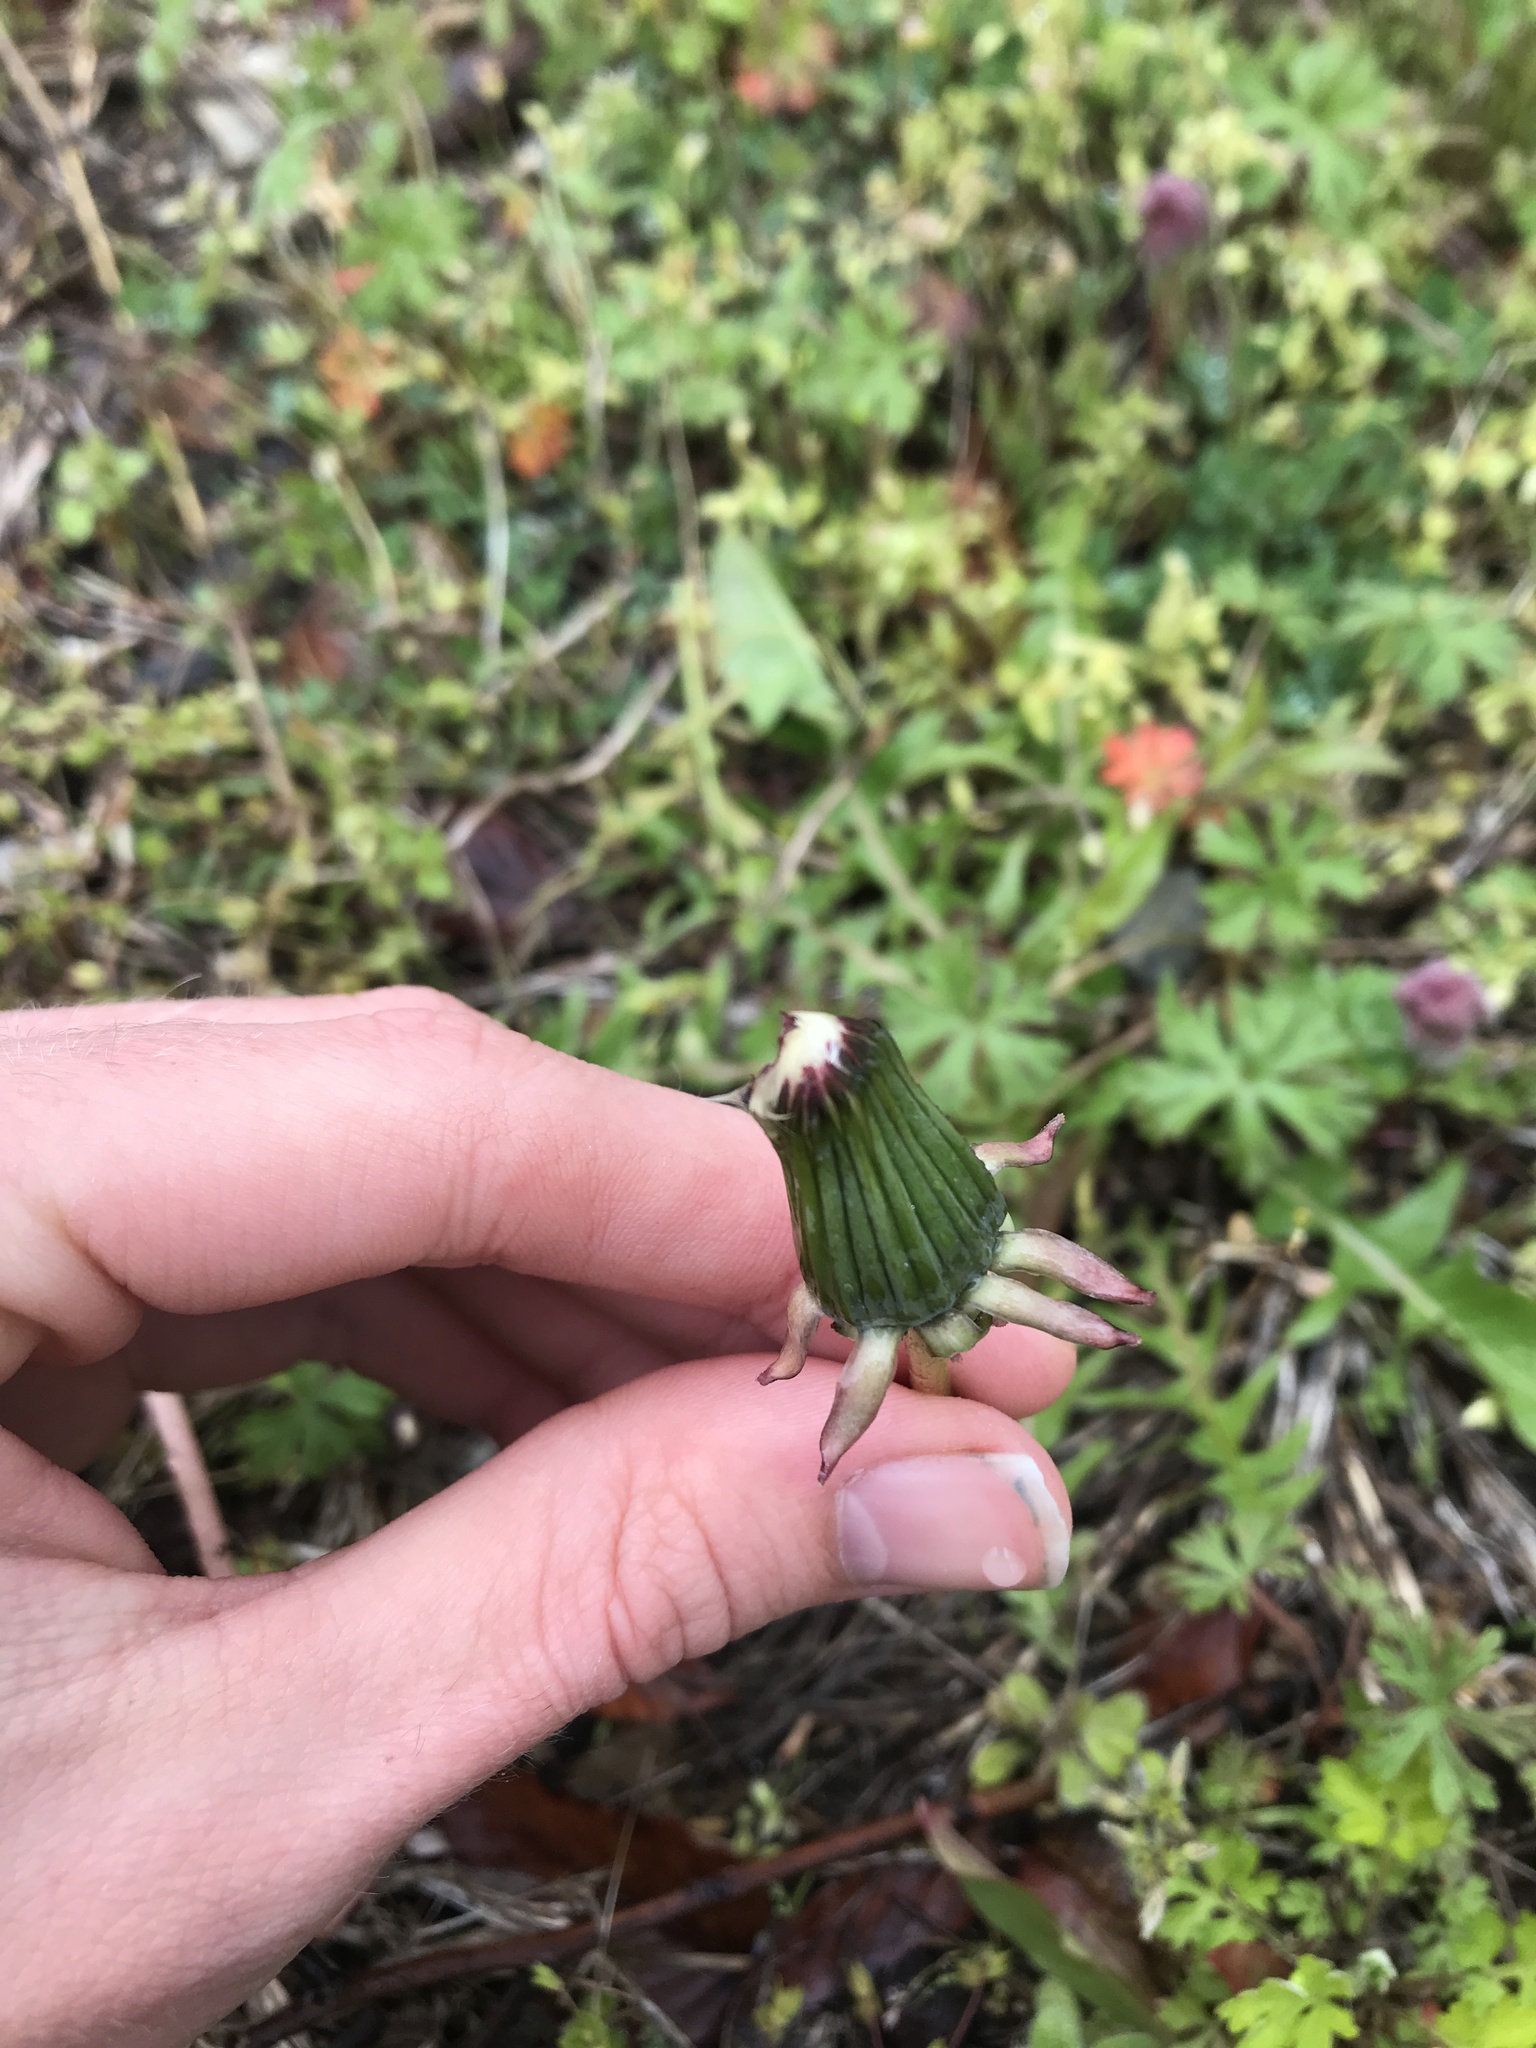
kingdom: Plantae
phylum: Tracheophyta
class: Magnoliopsida
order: Asterales
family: Asteraceae
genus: Taraxacum
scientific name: Taraxacum officinale
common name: Common dandelion
